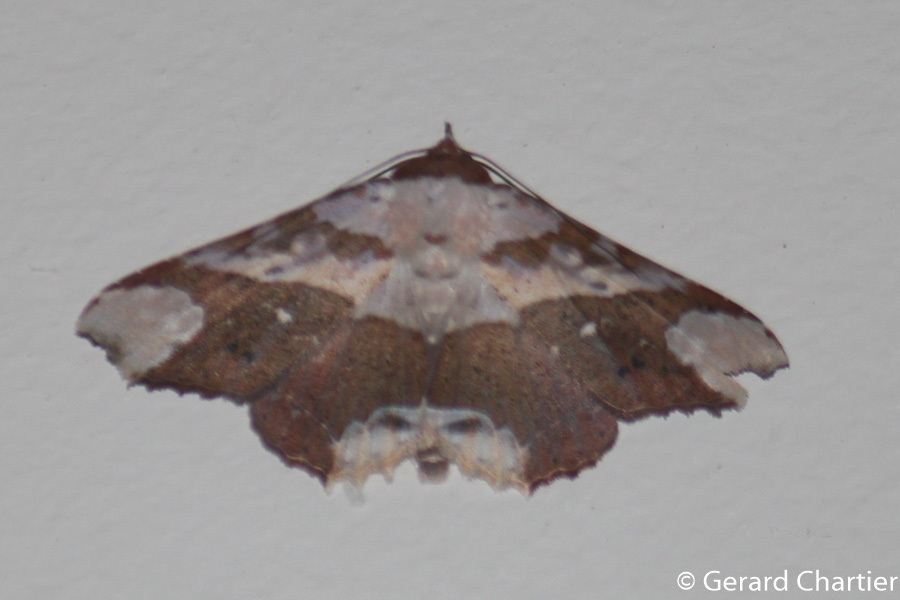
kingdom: Animalia
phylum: Arthropoda
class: Insecta
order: Lepidoptera
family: Erebidae
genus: Tropidtamba
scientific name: Tropidtamba lepraota
